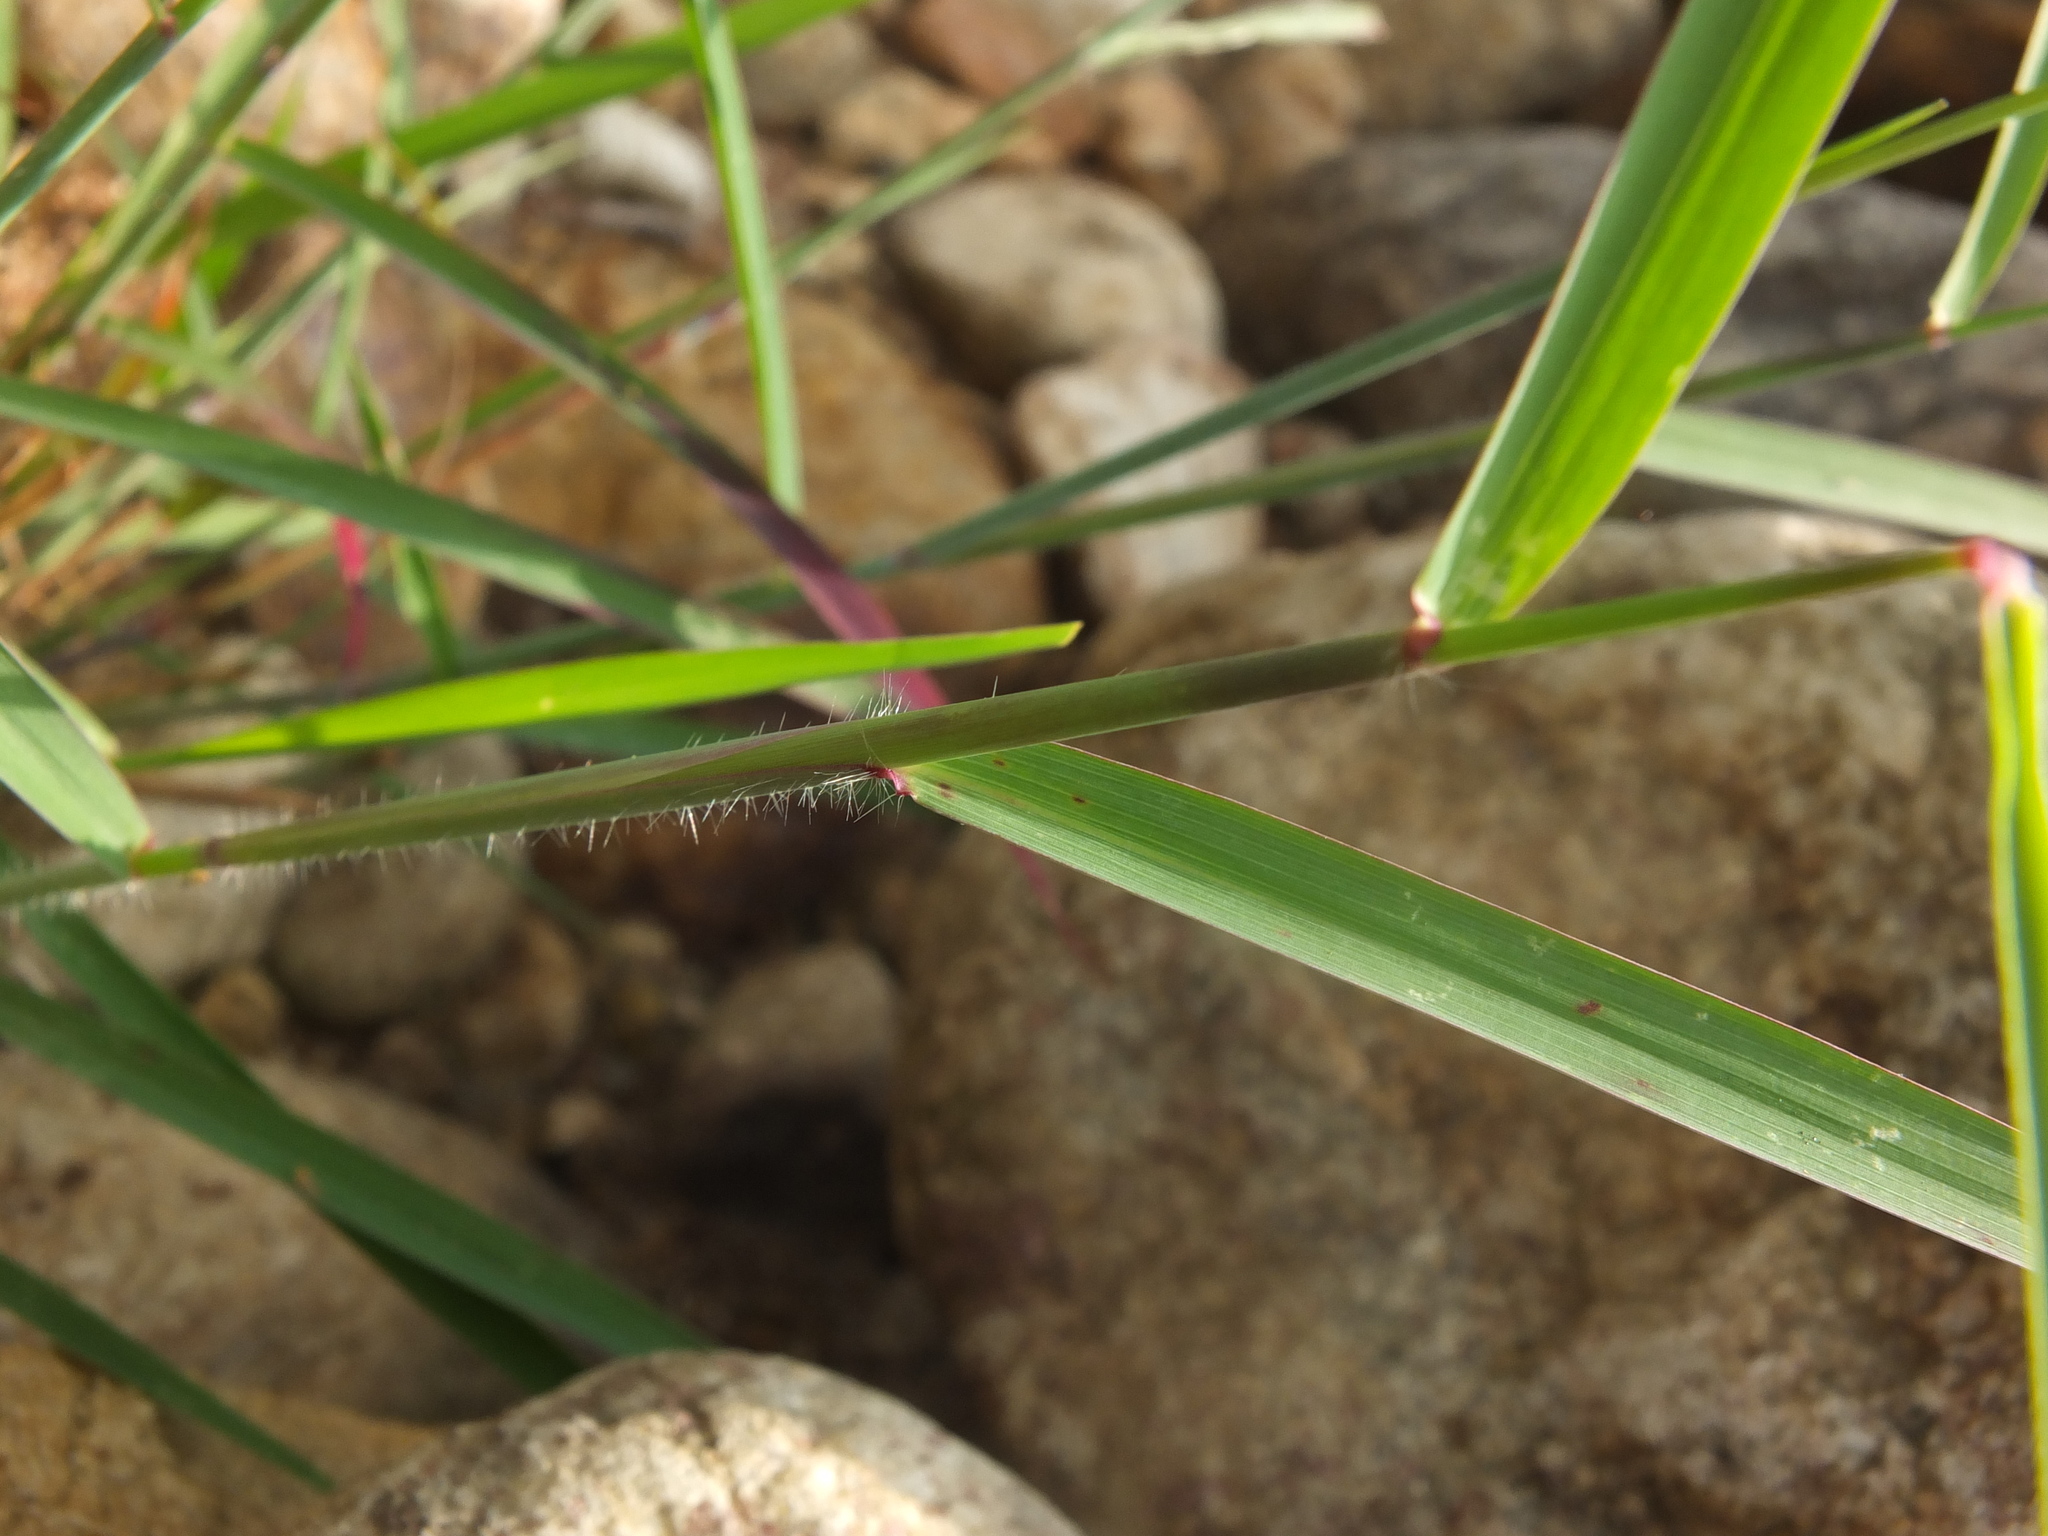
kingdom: Plantae
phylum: Tracheophyta
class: Liliopsida
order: Poales
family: Poaceae
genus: Melinis
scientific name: Melinis repens
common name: Rose natal grass
